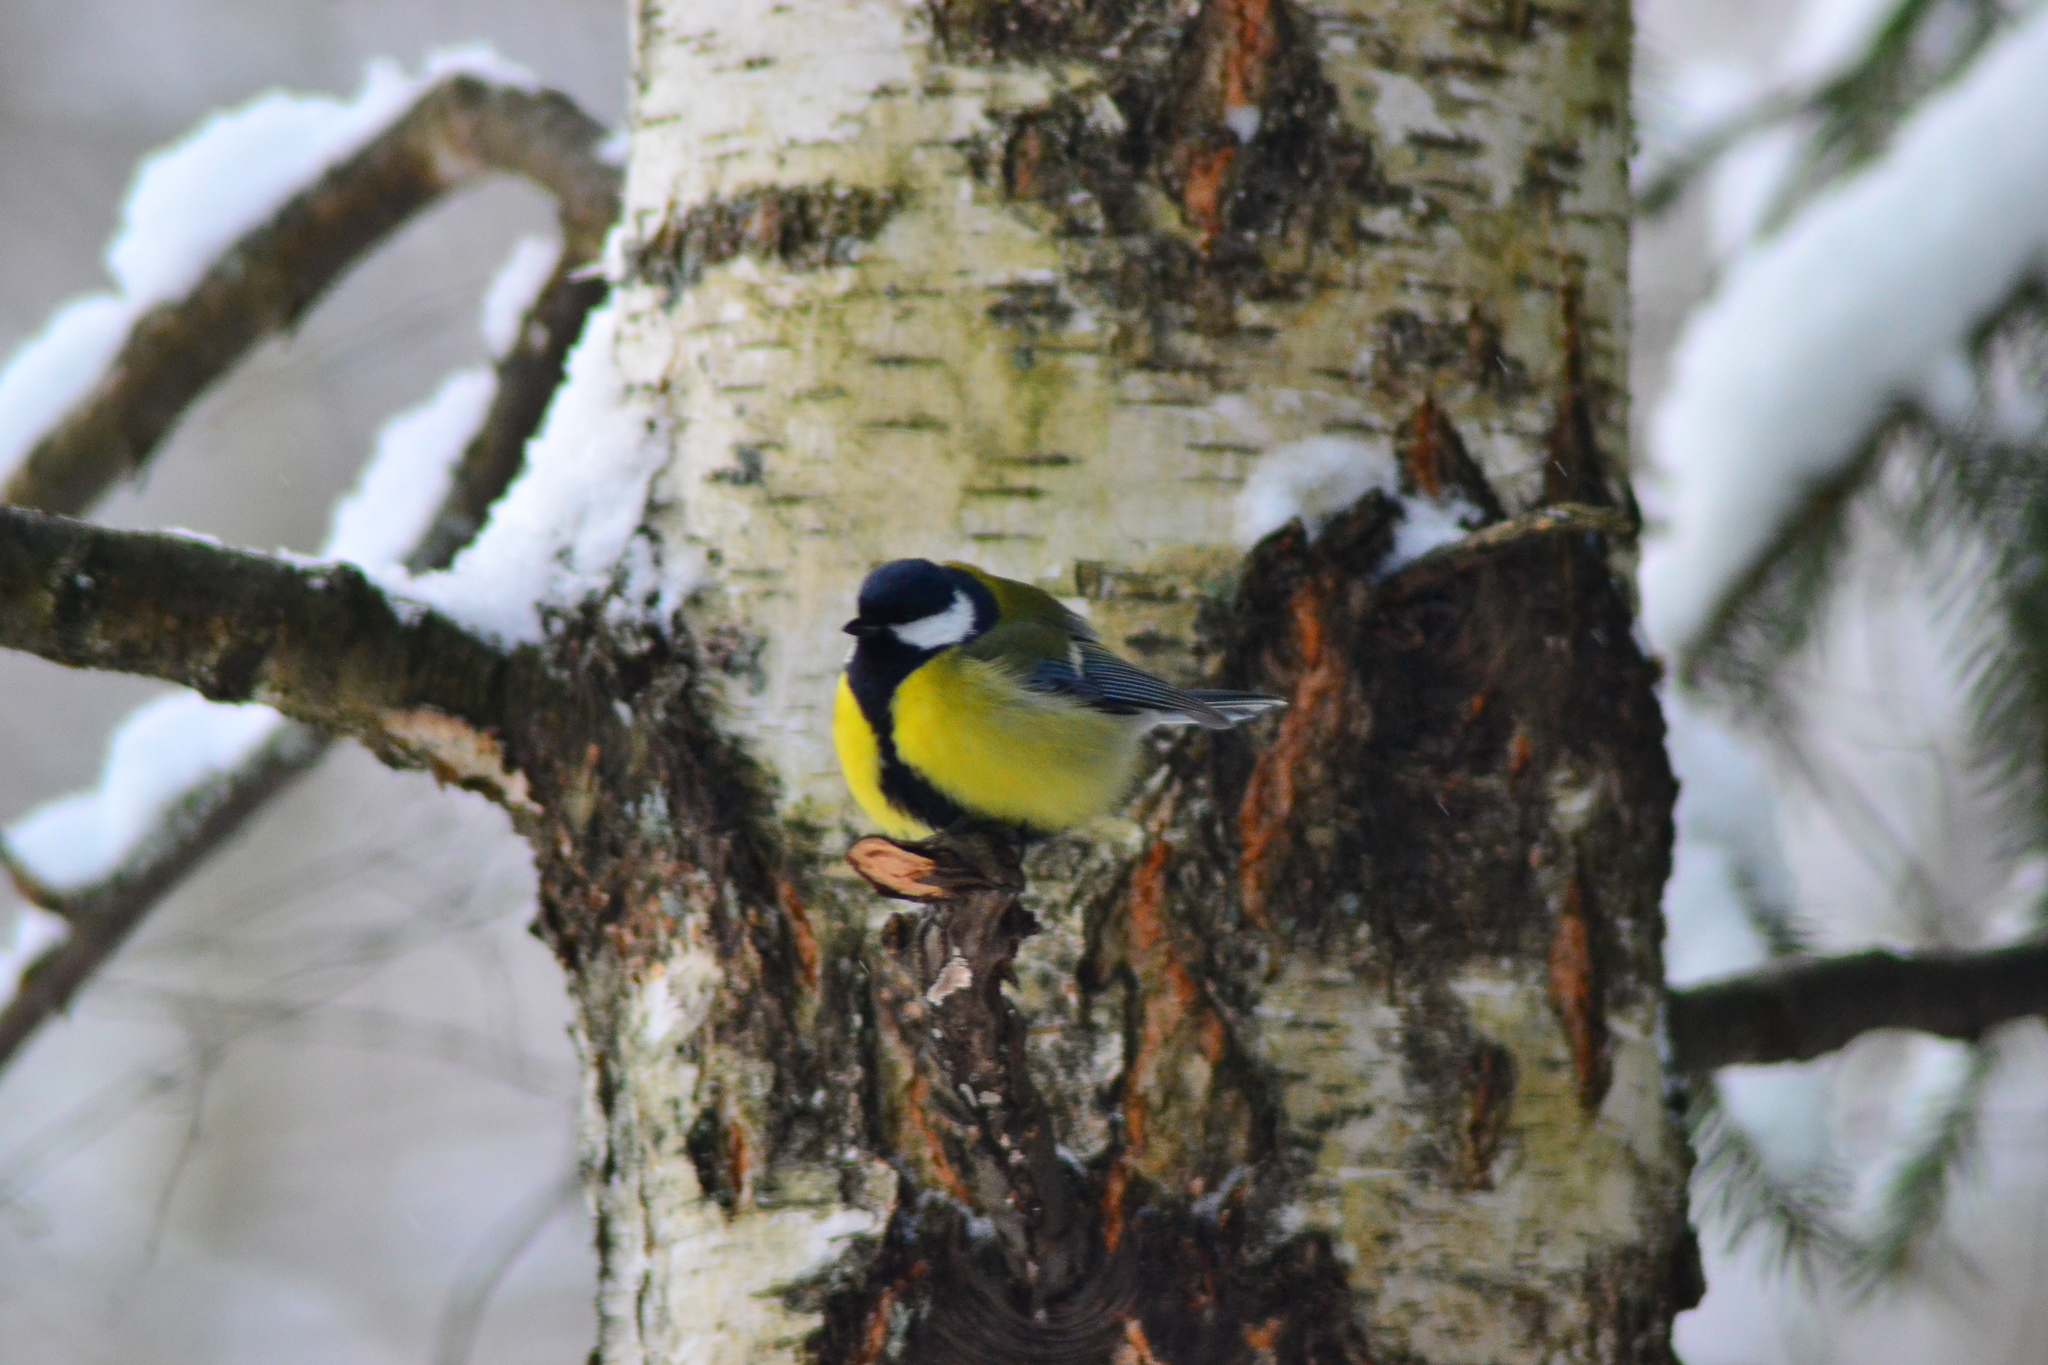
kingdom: Animalia
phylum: Chordata
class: Aves
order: Passeriformes
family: Paridae
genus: Parus
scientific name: Parus major
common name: Great tit
